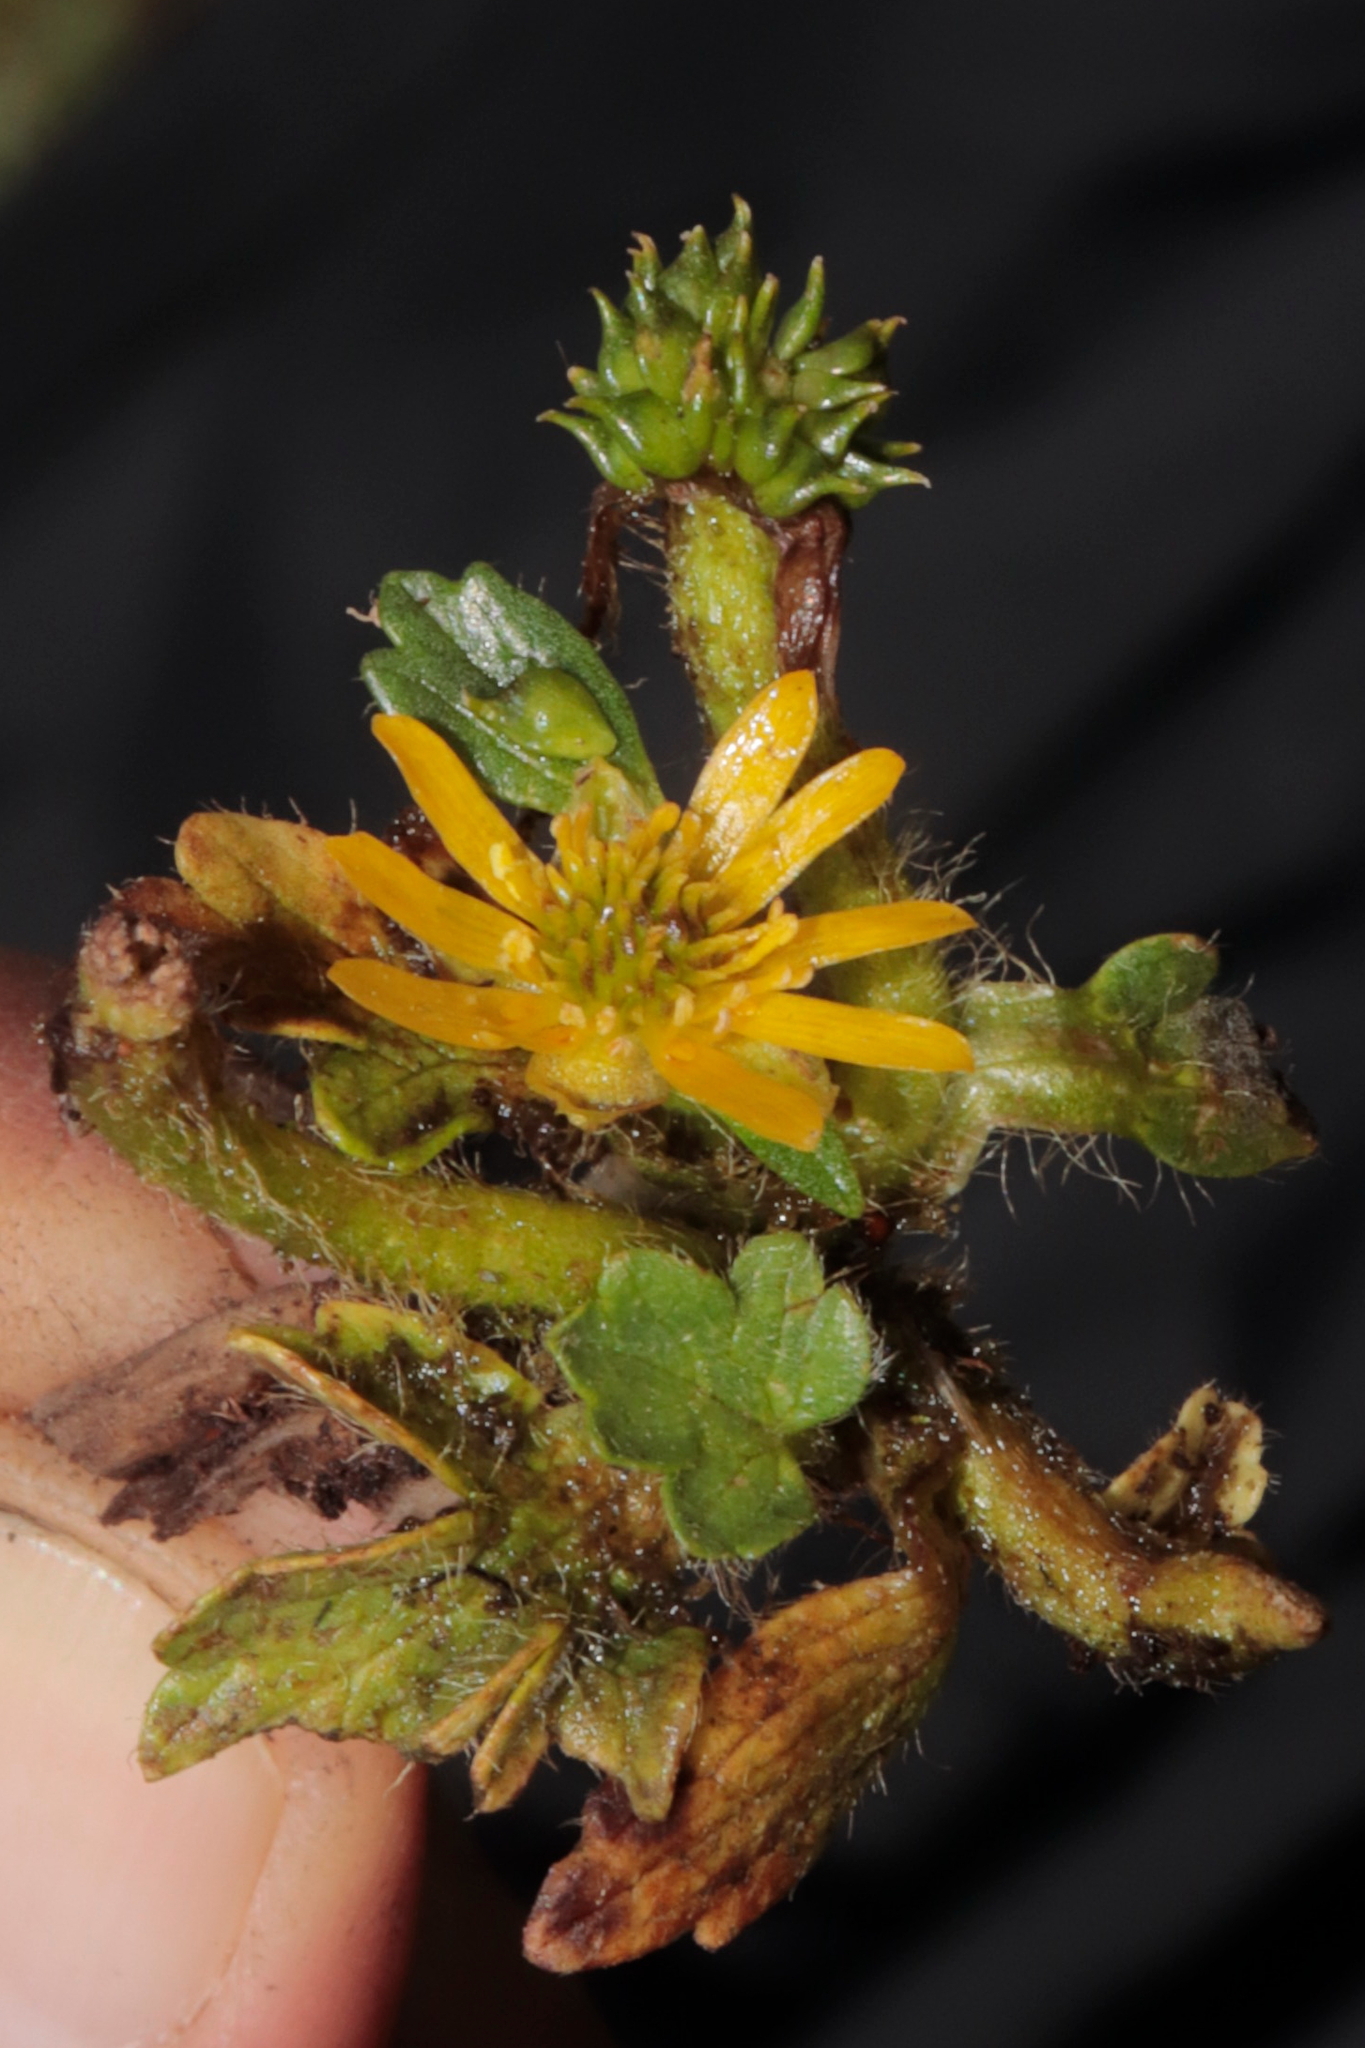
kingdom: Plantae
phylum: Tracheophyta
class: Magnoliopsida
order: Ranunculales
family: Ranunculaceae
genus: Ranunculus
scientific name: Ranunculus praemorsus
